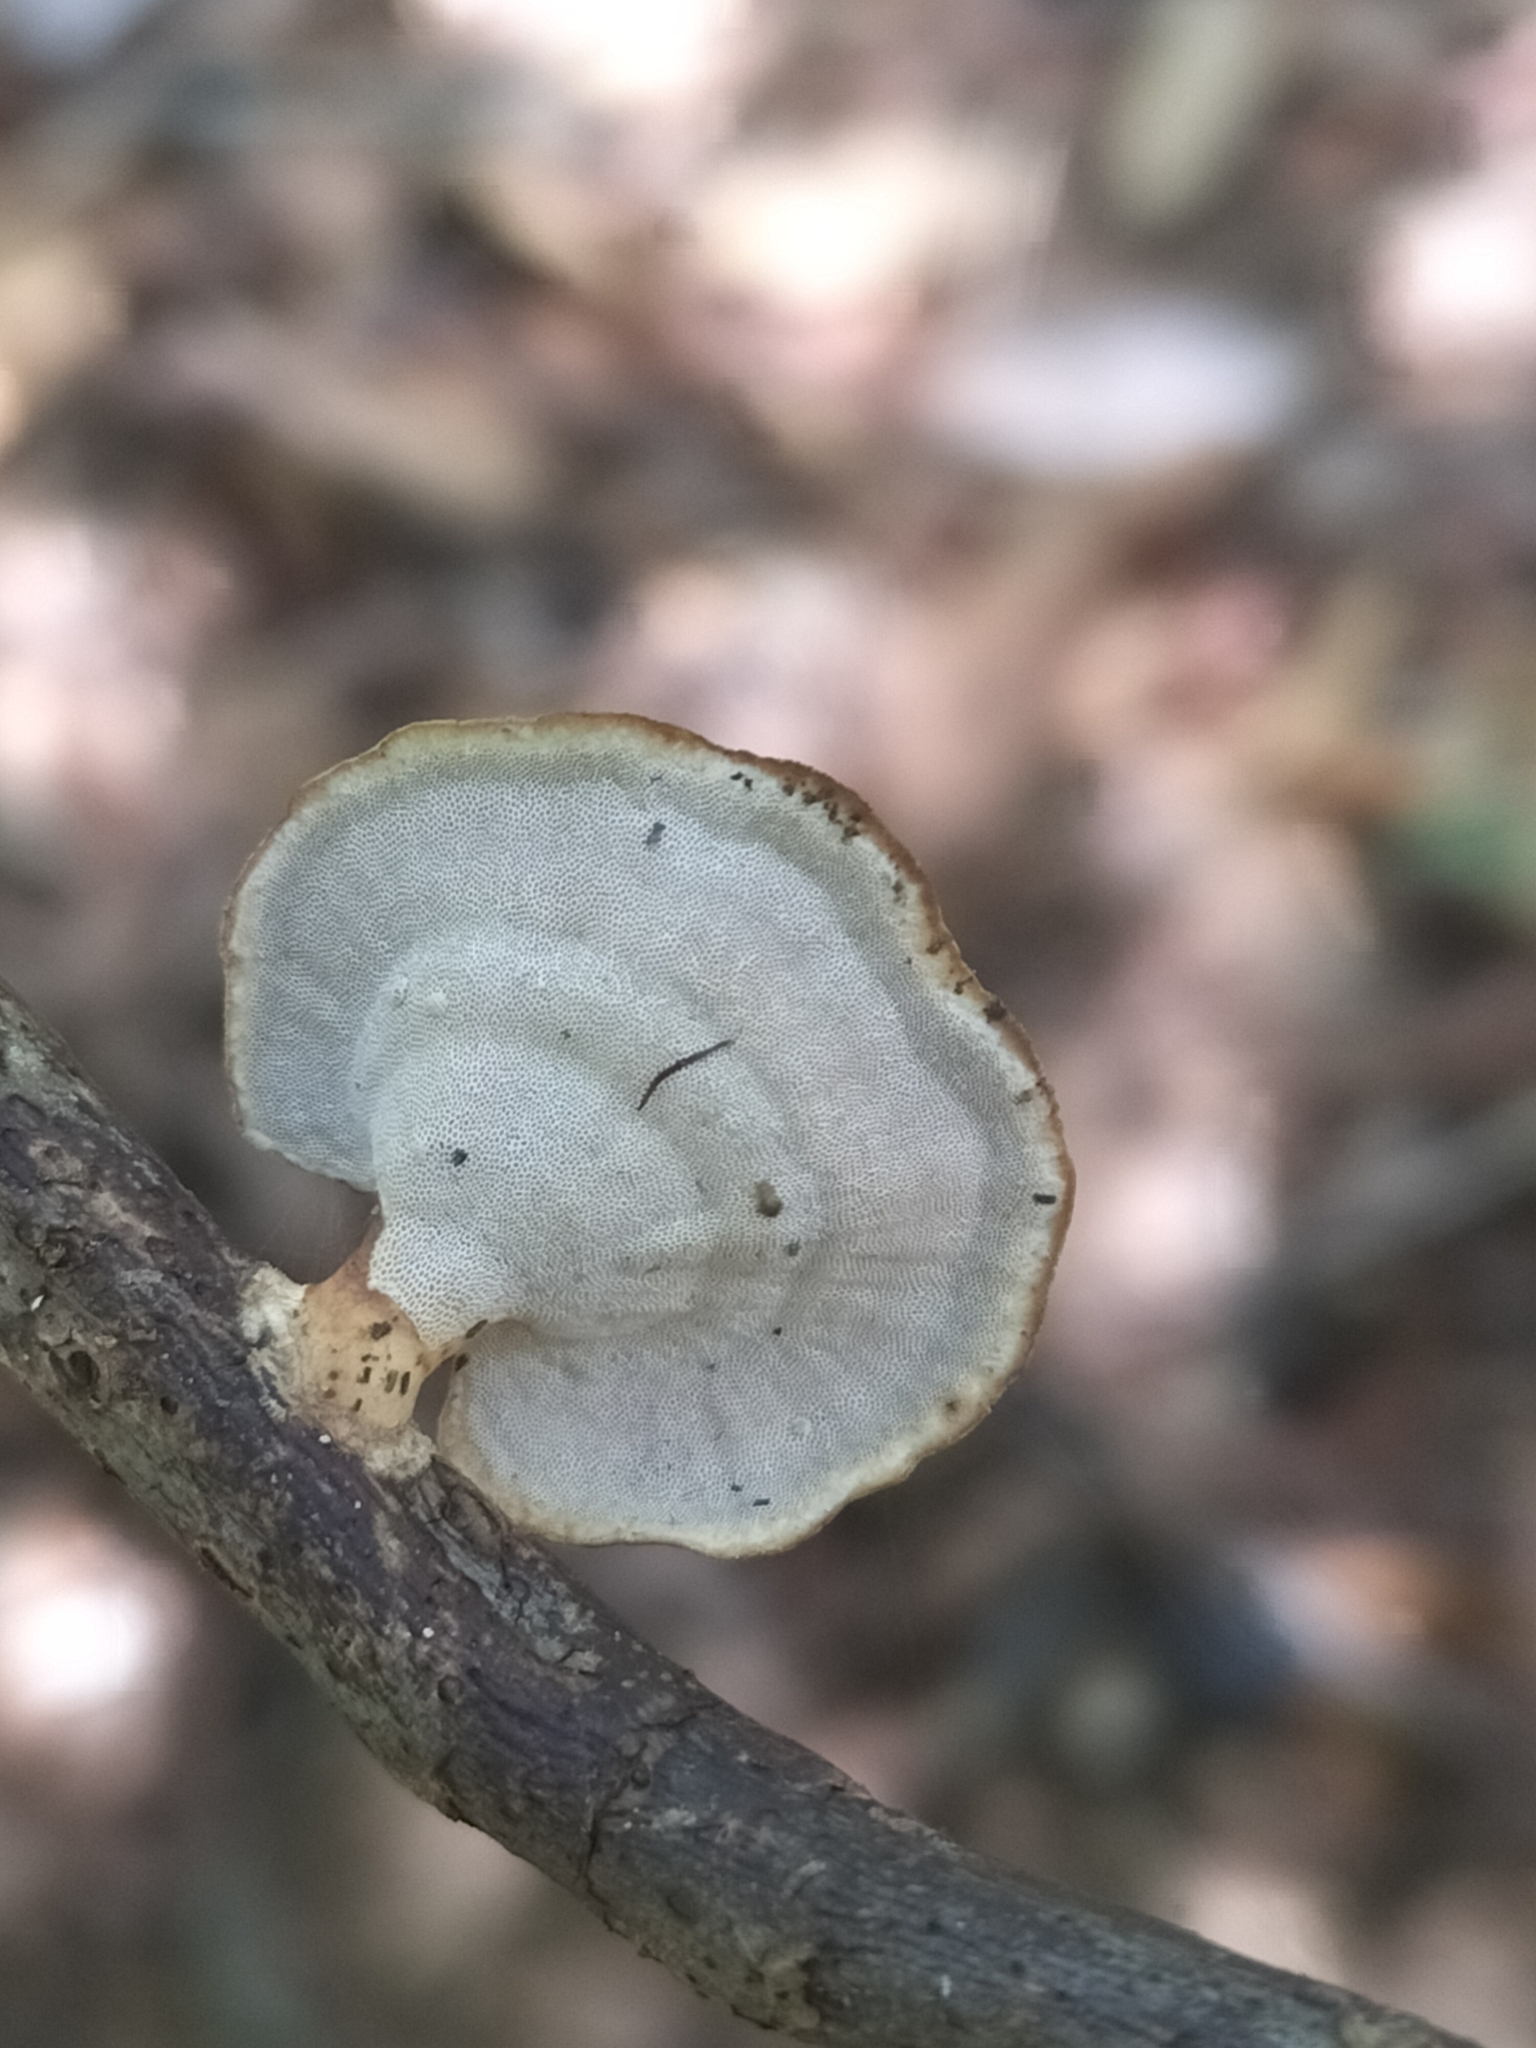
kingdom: Fungi
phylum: Basidiomycota
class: Agaricomycetes
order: Polyporales
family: Polyporaceae
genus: Microporus
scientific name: Microporus xanthopus
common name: Yellow-stemmed micropore
